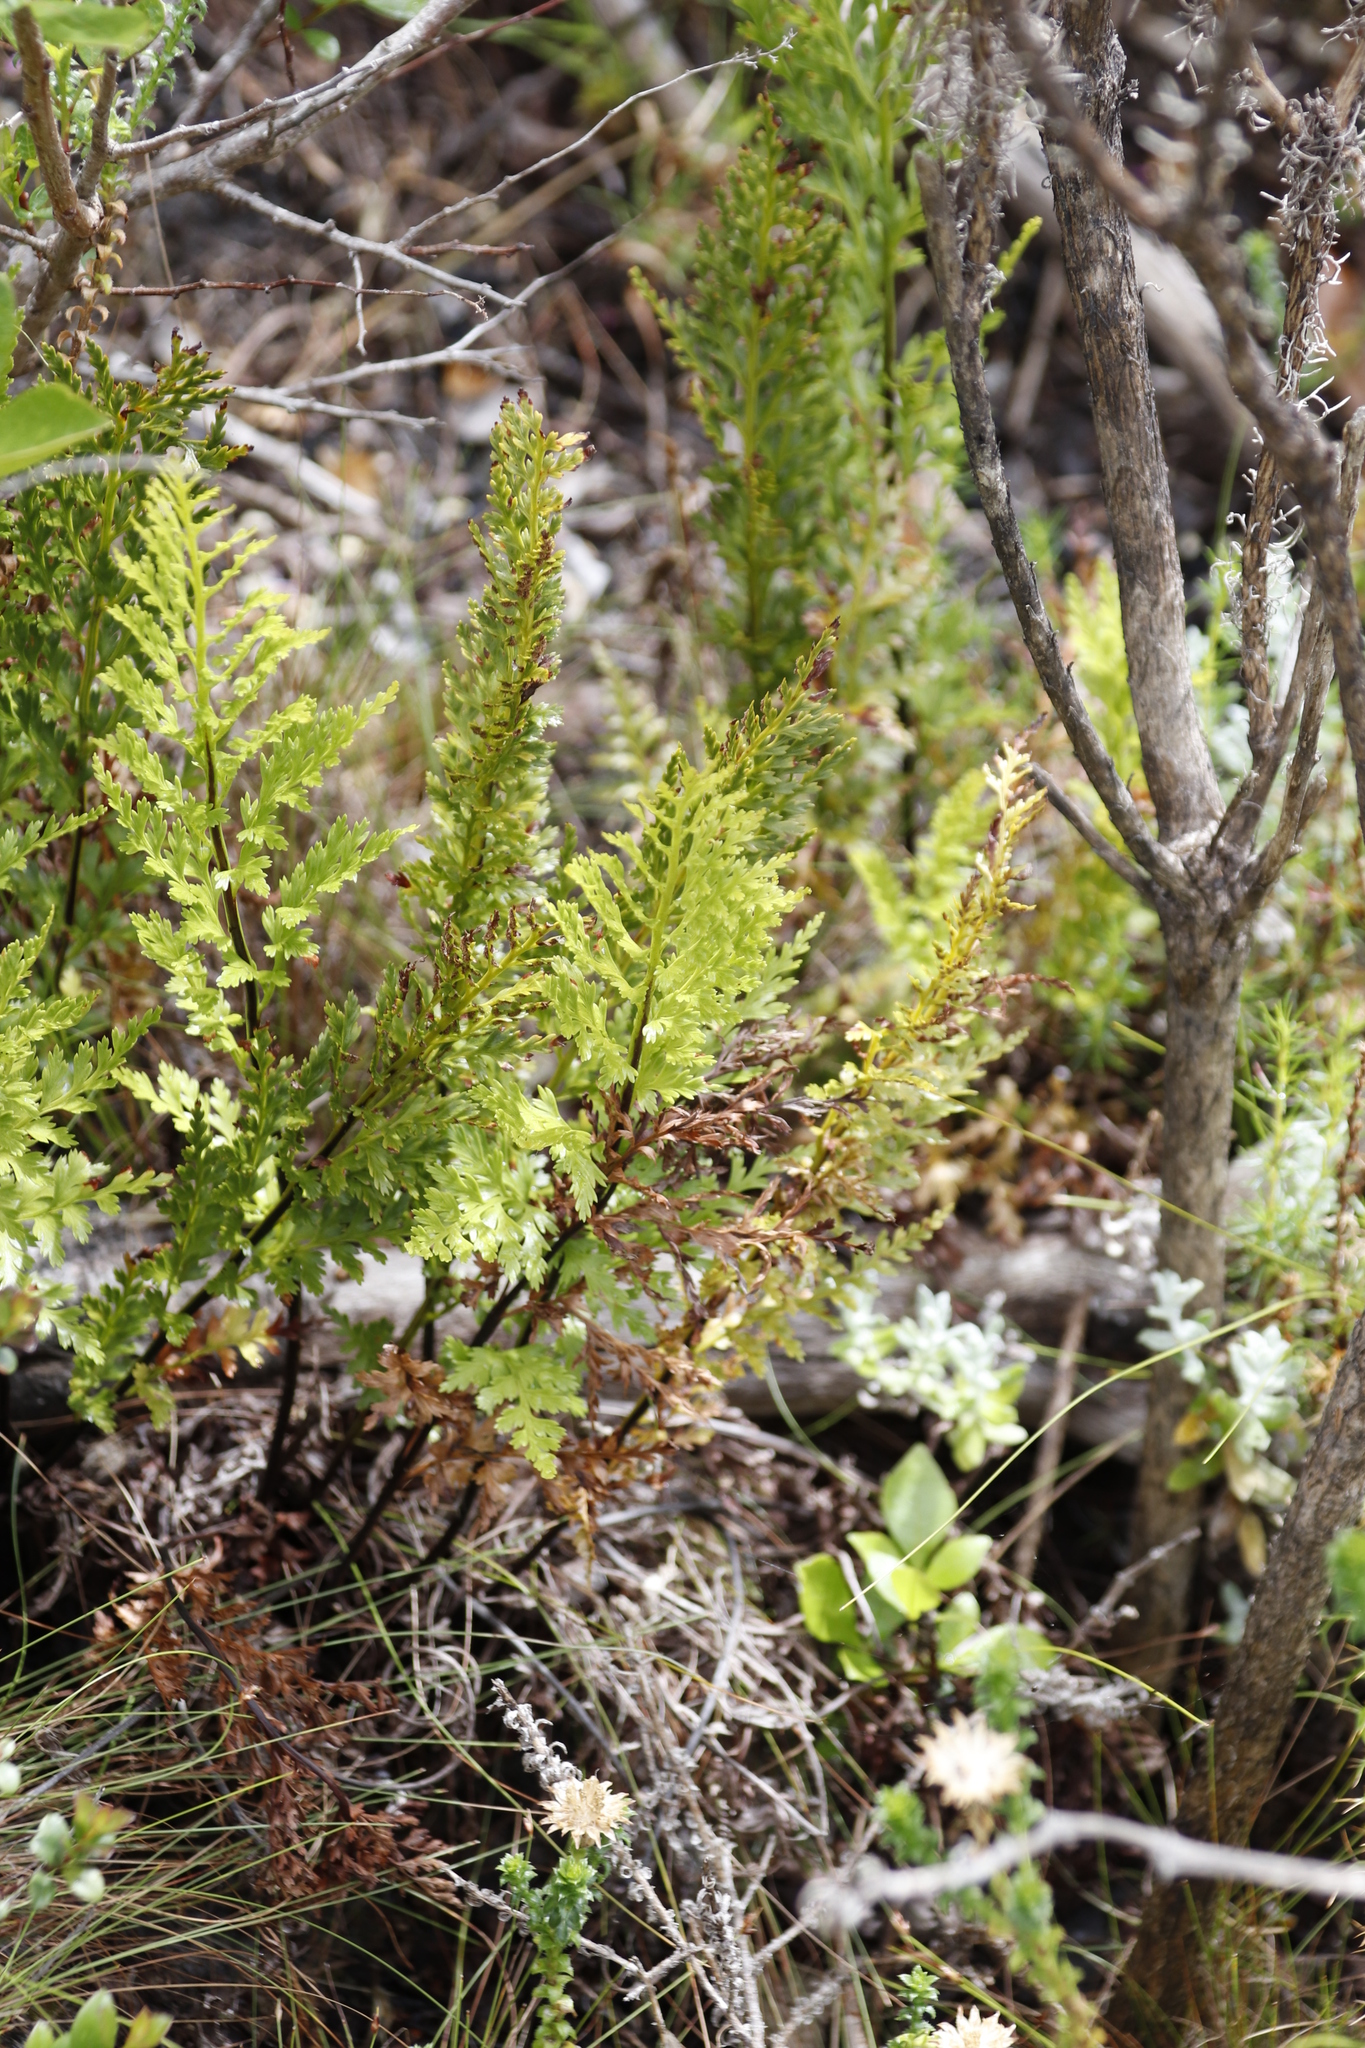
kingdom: Plantae
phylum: Tracheophyta
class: Polypodiopsida
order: Polypodiales
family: Aspleniaceae
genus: Asplenium
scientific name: Asplenium adiantum-nigrum
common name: Black spleenwort
